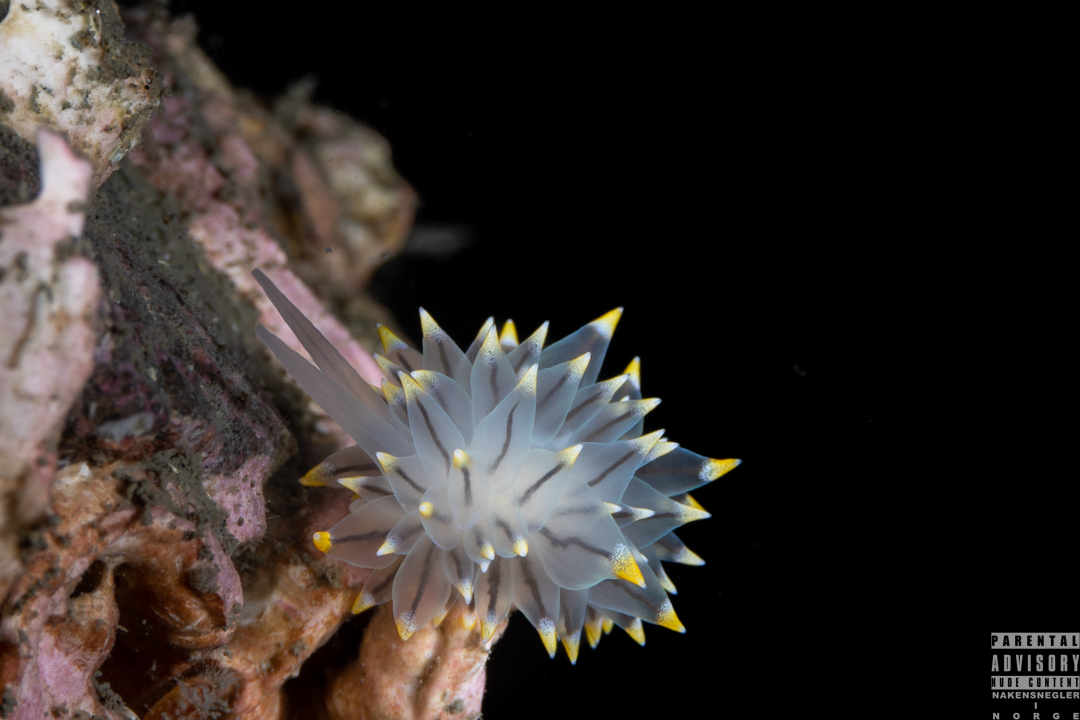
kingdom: Animalia
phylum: Mollusca
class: Gastropoda
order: Nudibranchia
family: Eubranchidae
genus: Eubranchus
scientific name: Eubranchus tricolor
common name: Painted balloon aeolis
